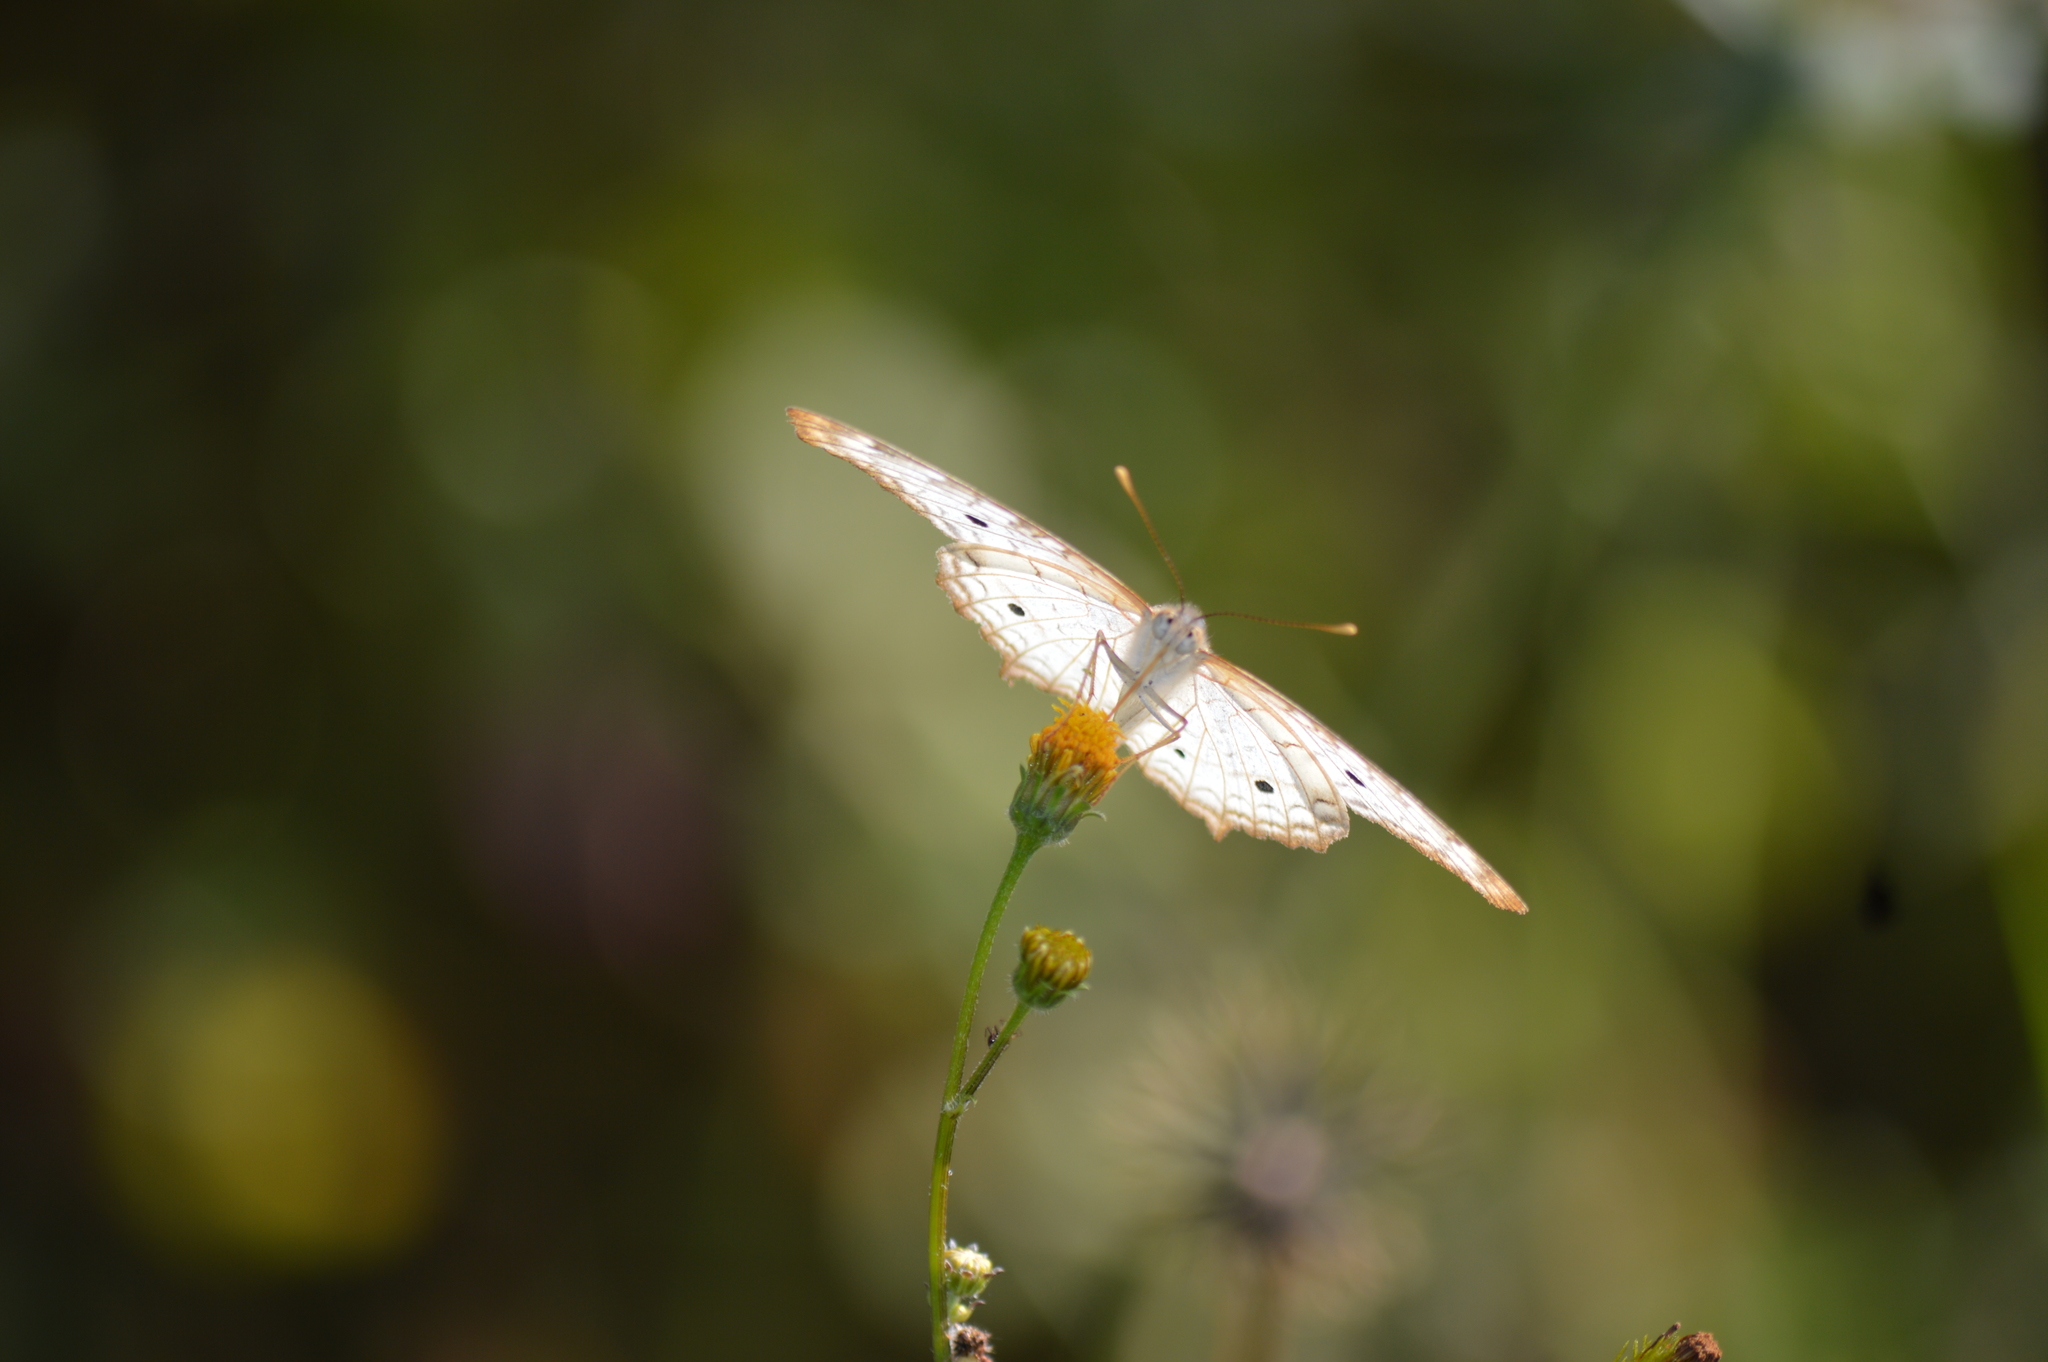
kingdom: Animalia
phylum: Arthropoda
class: Insecta
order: Lepidoptera
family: Nymphalidae
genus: Anartia
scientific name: Anartia jatrophae
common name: White peacock
